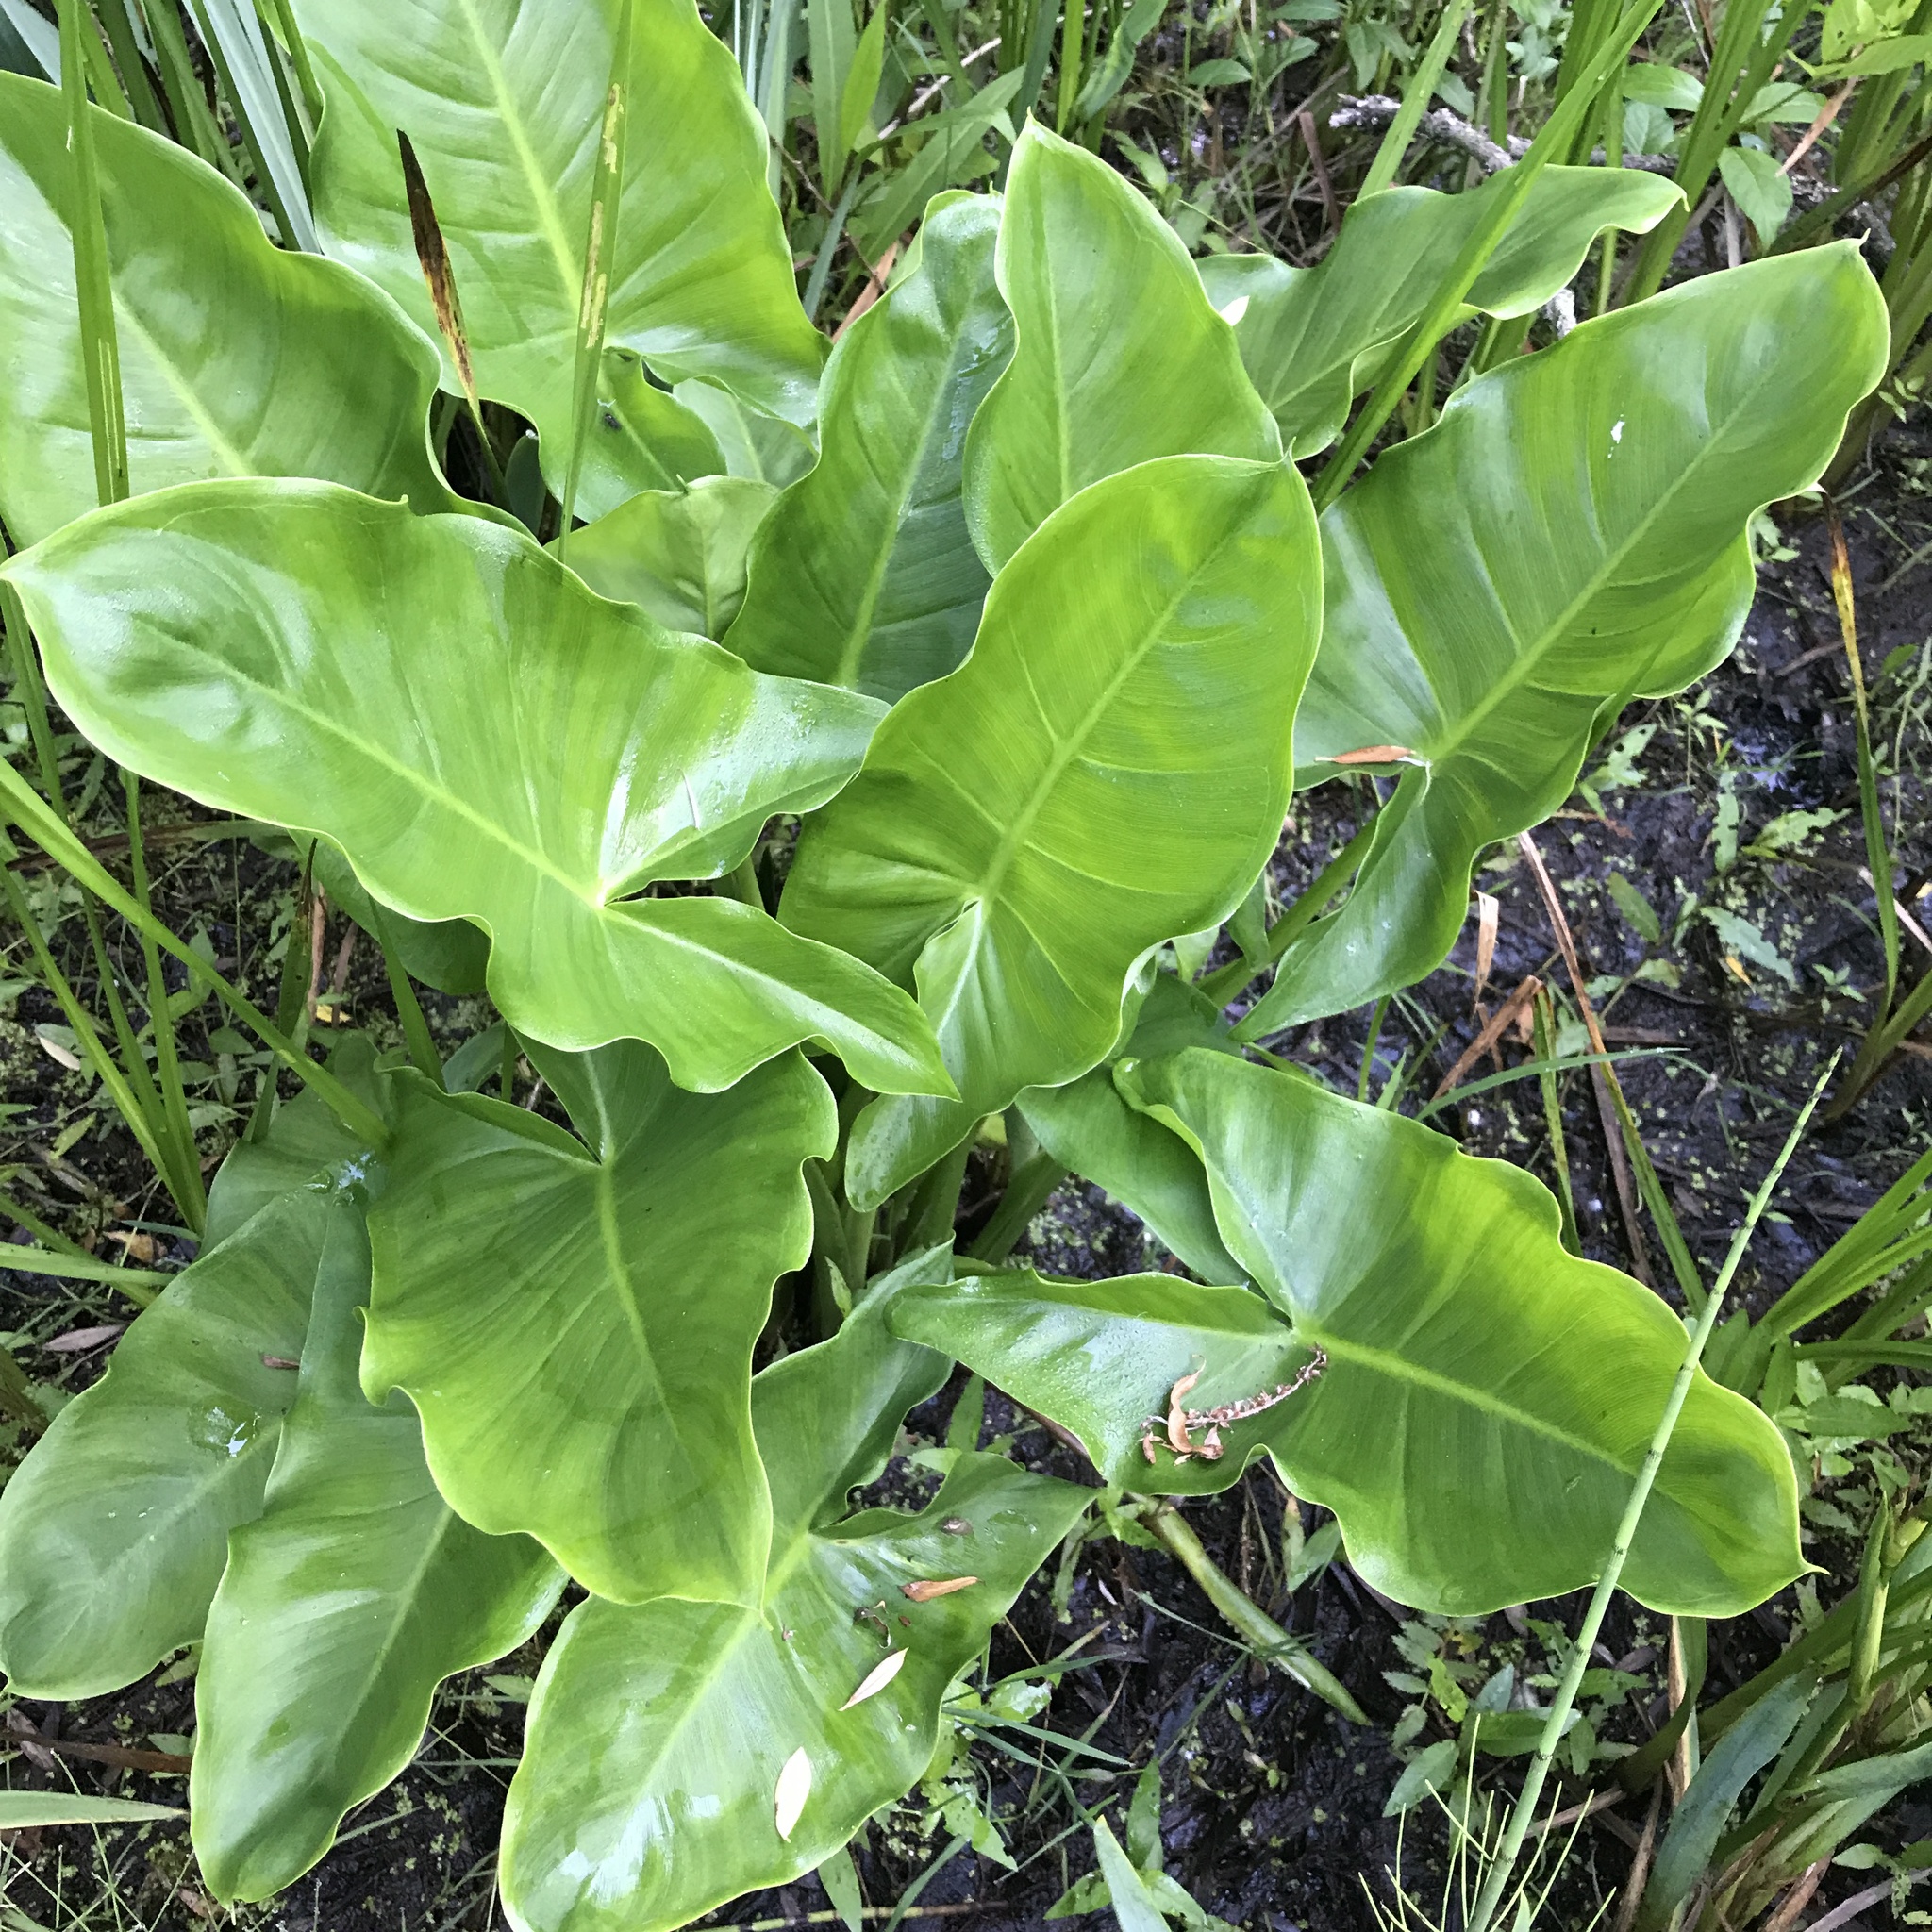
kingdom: Plantae
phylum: Tracheophyta
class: Liliopsida
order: Alismatales
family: Araceae
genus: Peltandra
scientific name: Peltandra virginica
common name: Arrow arum
